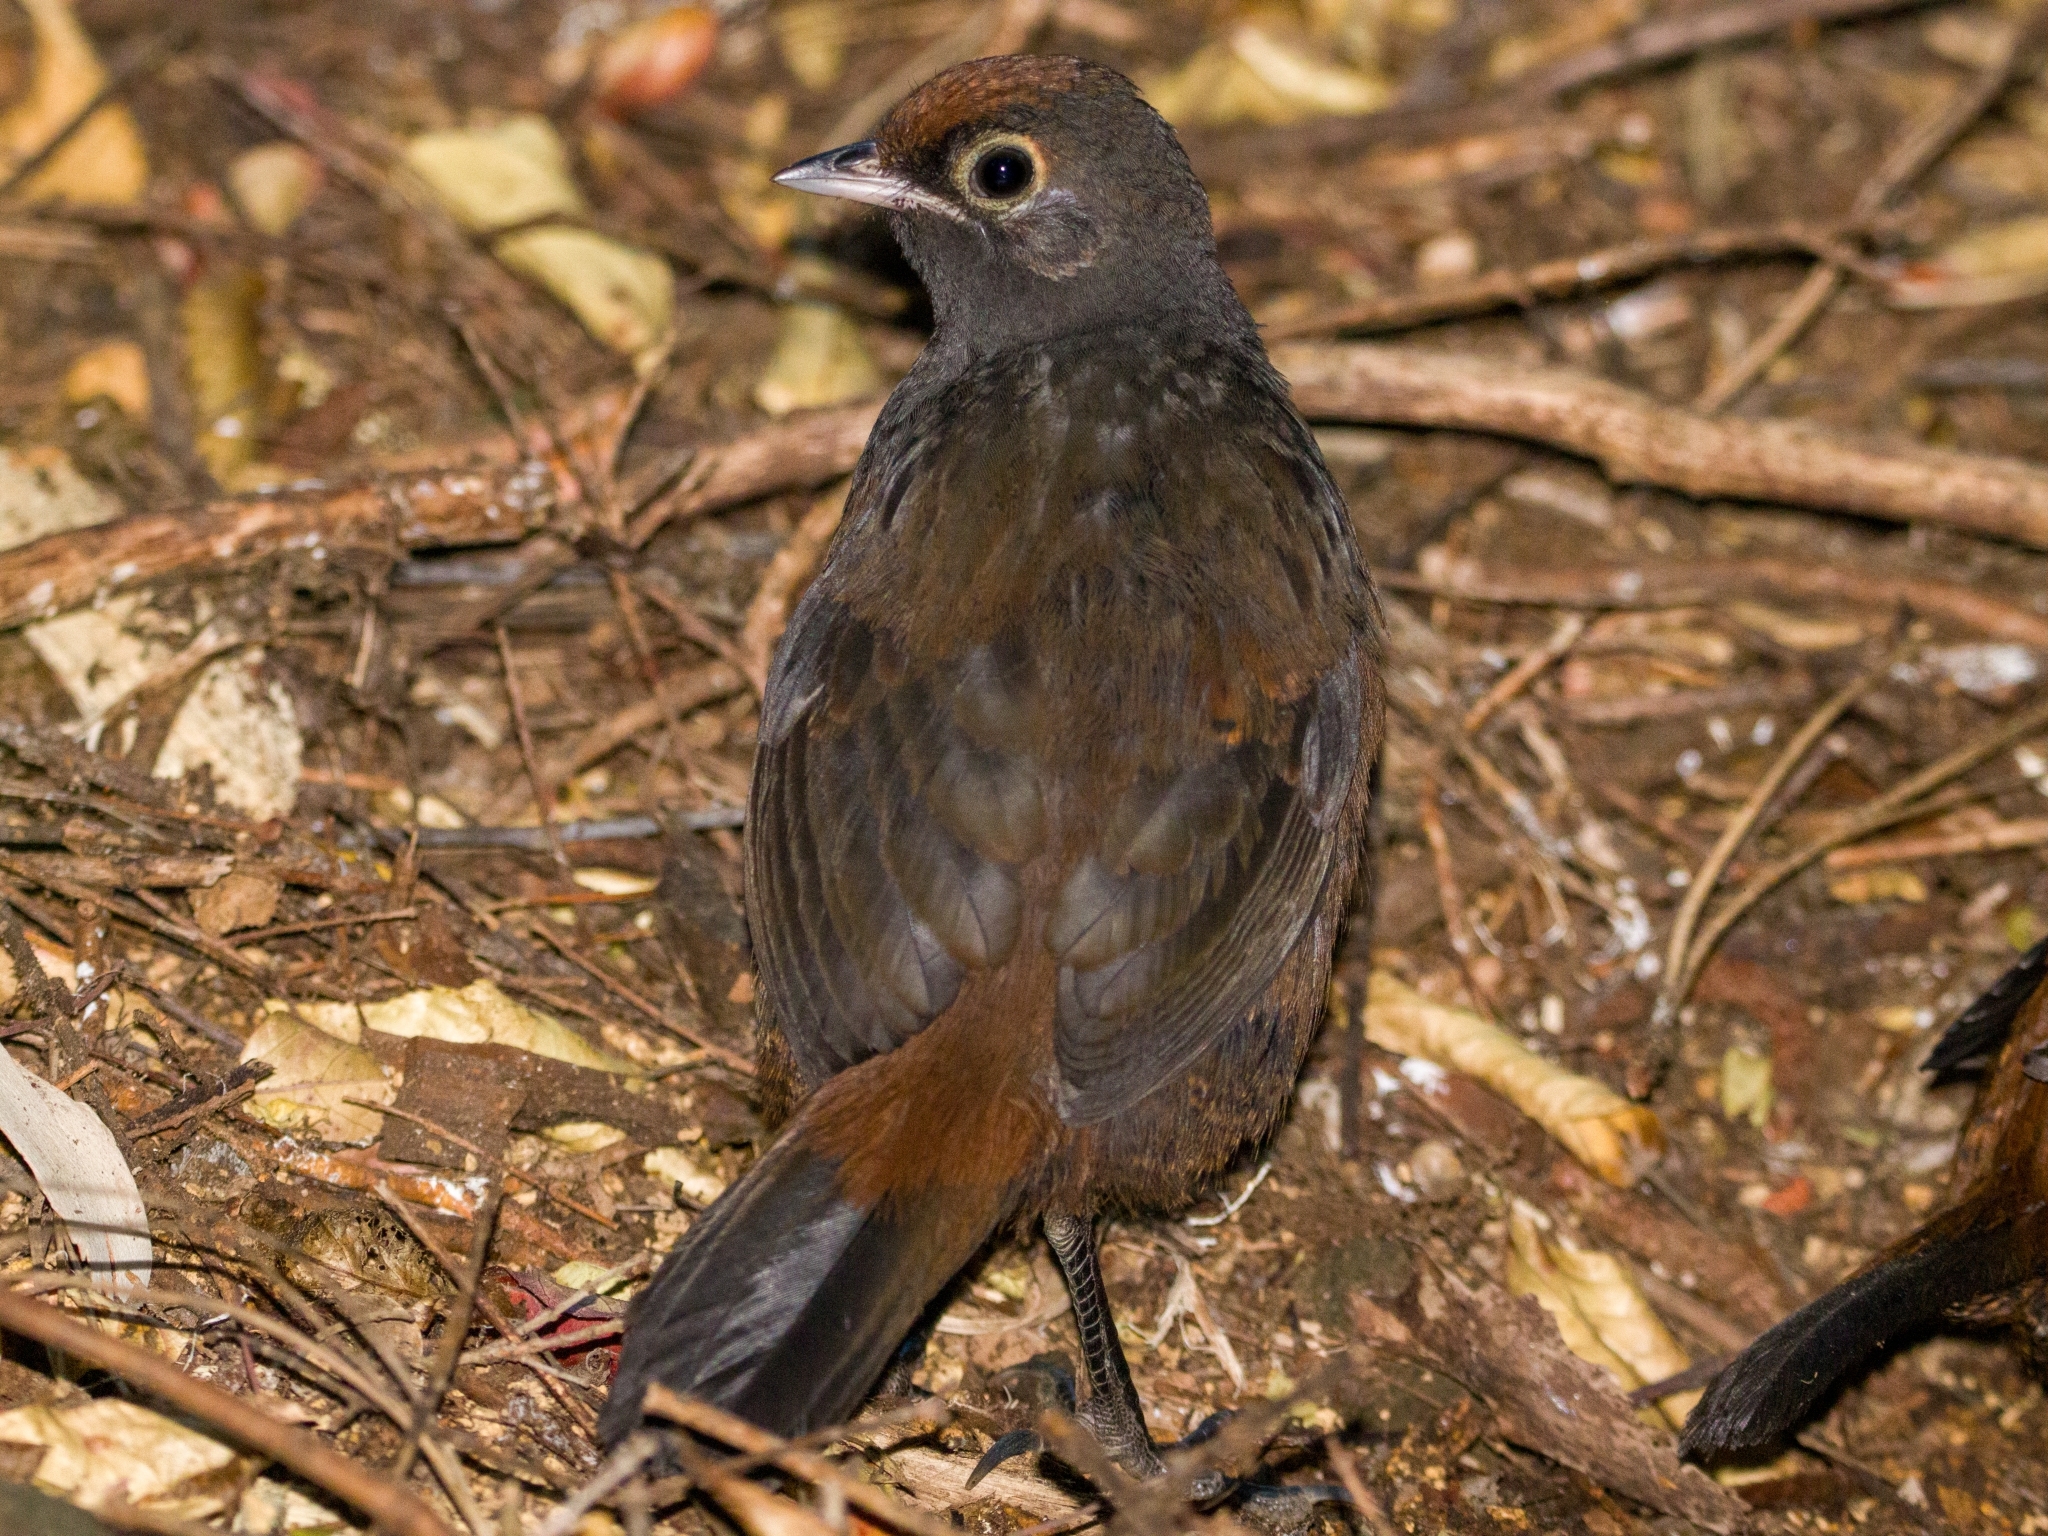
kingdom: Animalia
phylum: Chordata
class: Aves
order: Passeriformes
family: Rhinocryptidae
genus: Pteroptochos
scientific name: Pteroptochos tarnii
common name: Black-throated huet-huet
